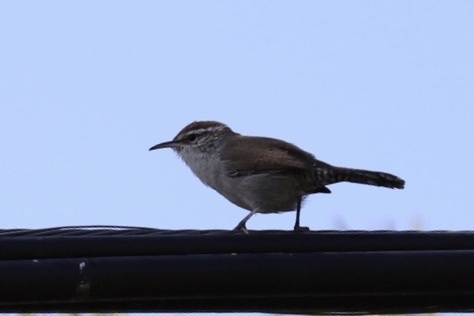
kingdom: Animalia
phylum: Chordata
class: Aves
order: Passeriformes
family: Troglodytidae
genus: Thryomanes
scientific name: Thryomanes bewickii
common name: Bewick's wren
